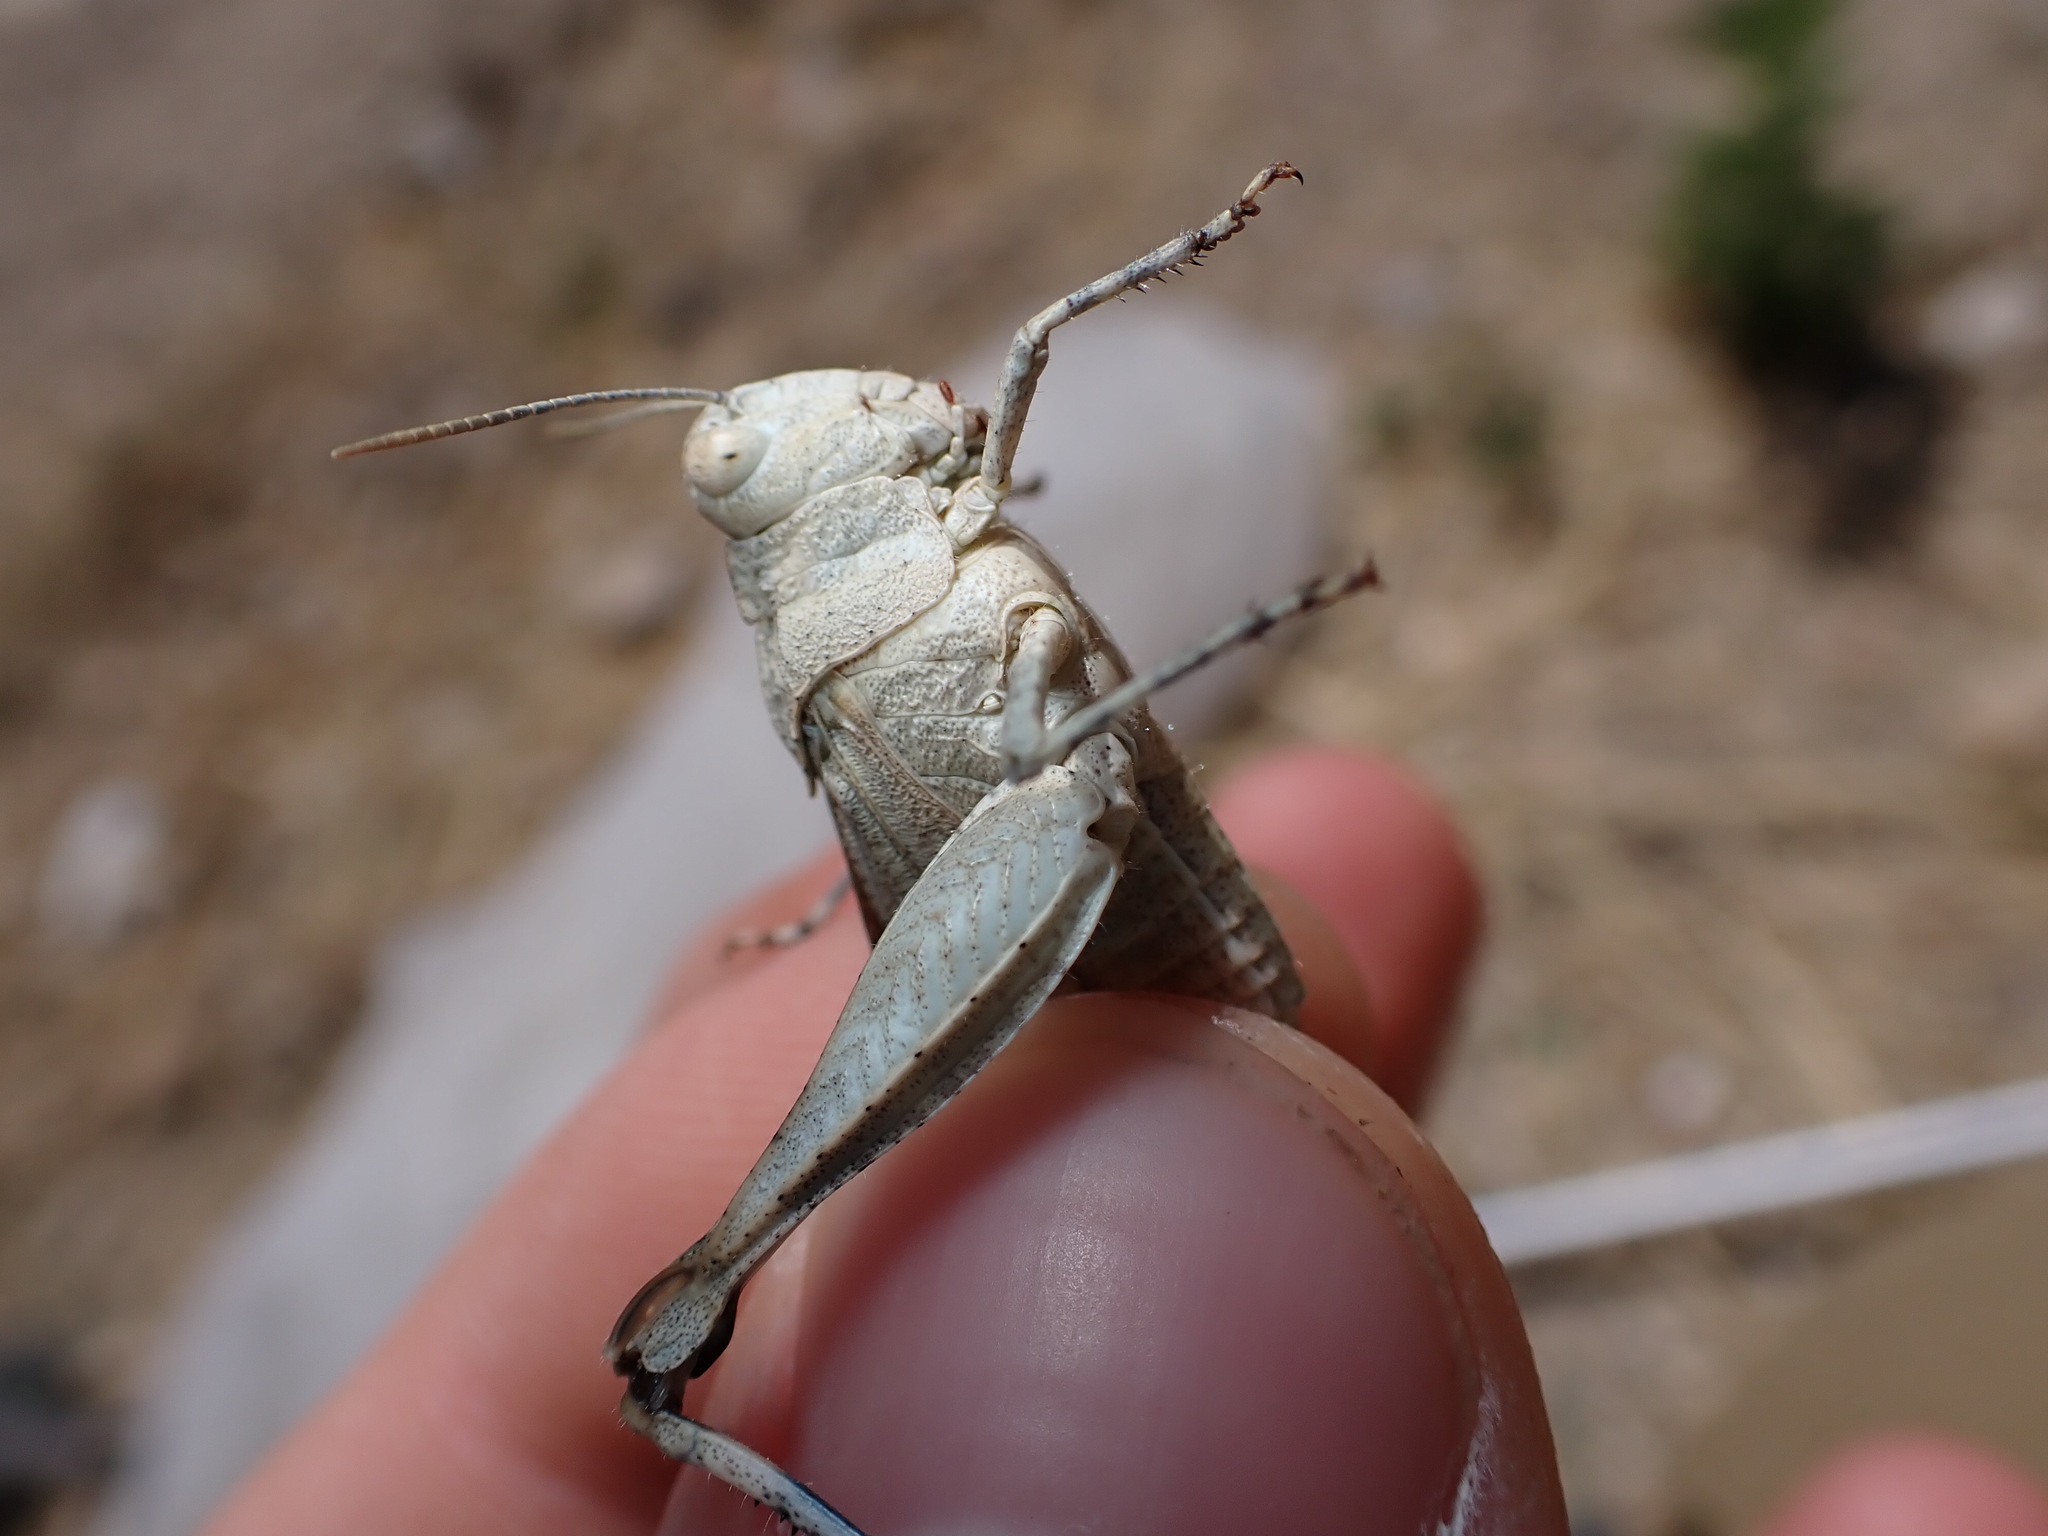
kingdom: Animalia
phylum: Arthropoda
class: Insecta
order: Orthoptera
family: Acrididae
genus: Oedipoda
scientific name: Oedipoda caerulescens
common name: Blue-winged grasshopper
